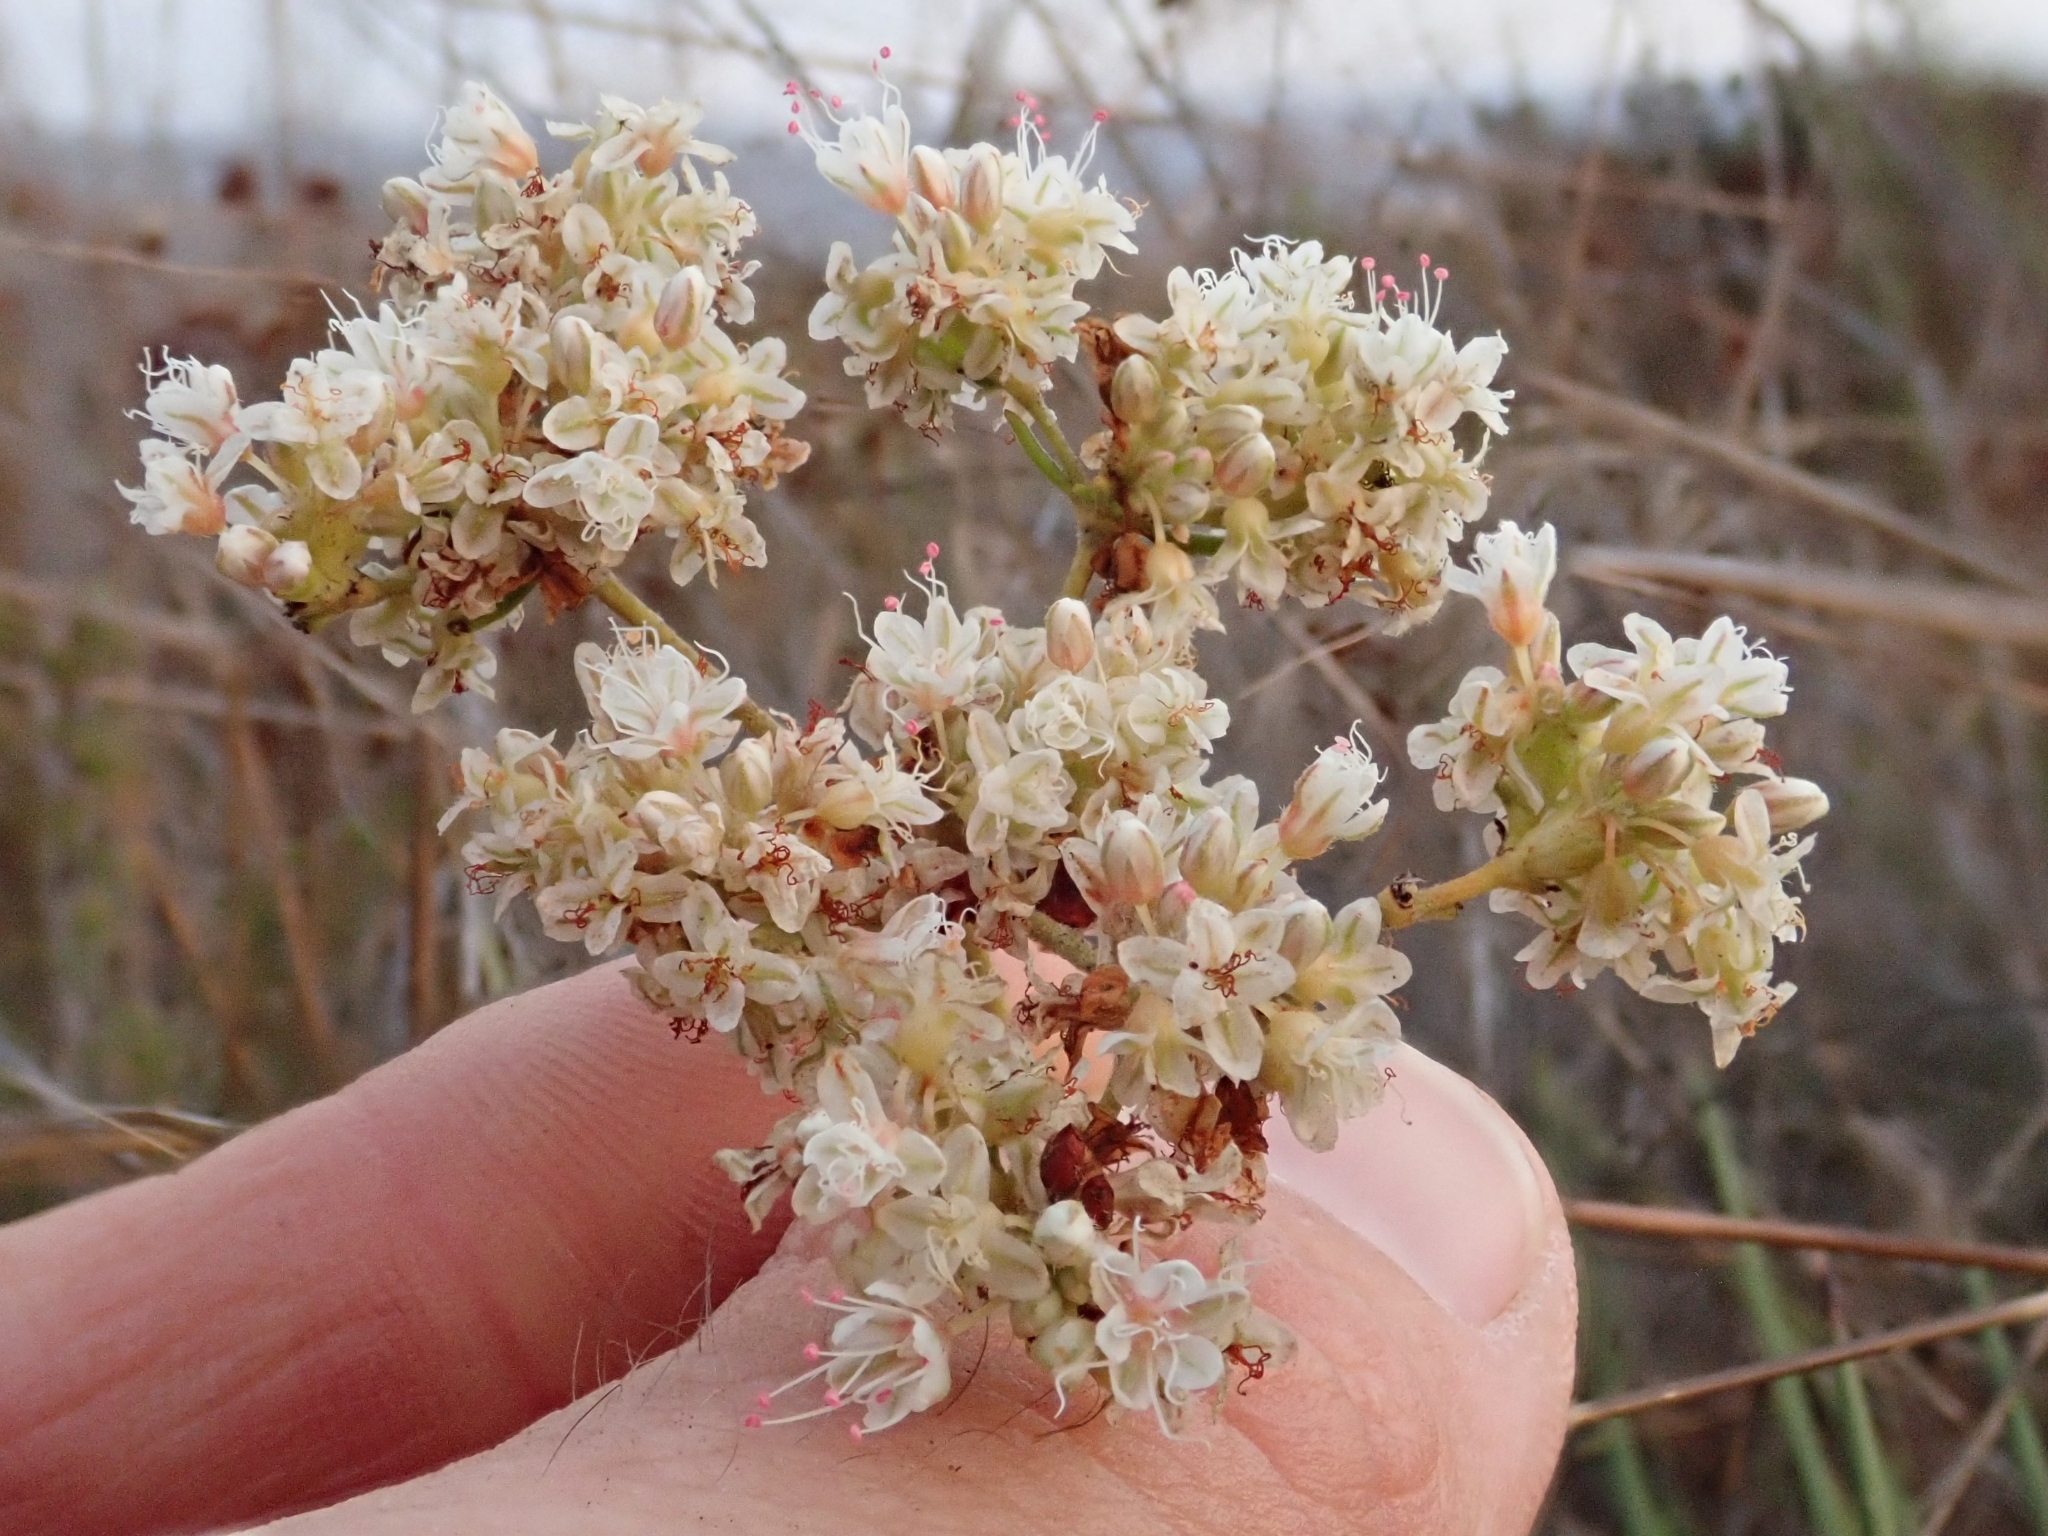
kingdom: Plantae
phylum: Tracheophyta
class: Magnoliopsida
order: Caryophyllales
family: Polygonaceae
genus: Eriogonum
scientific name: Eriogonum fasciculatum
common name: California wild buckwheat
